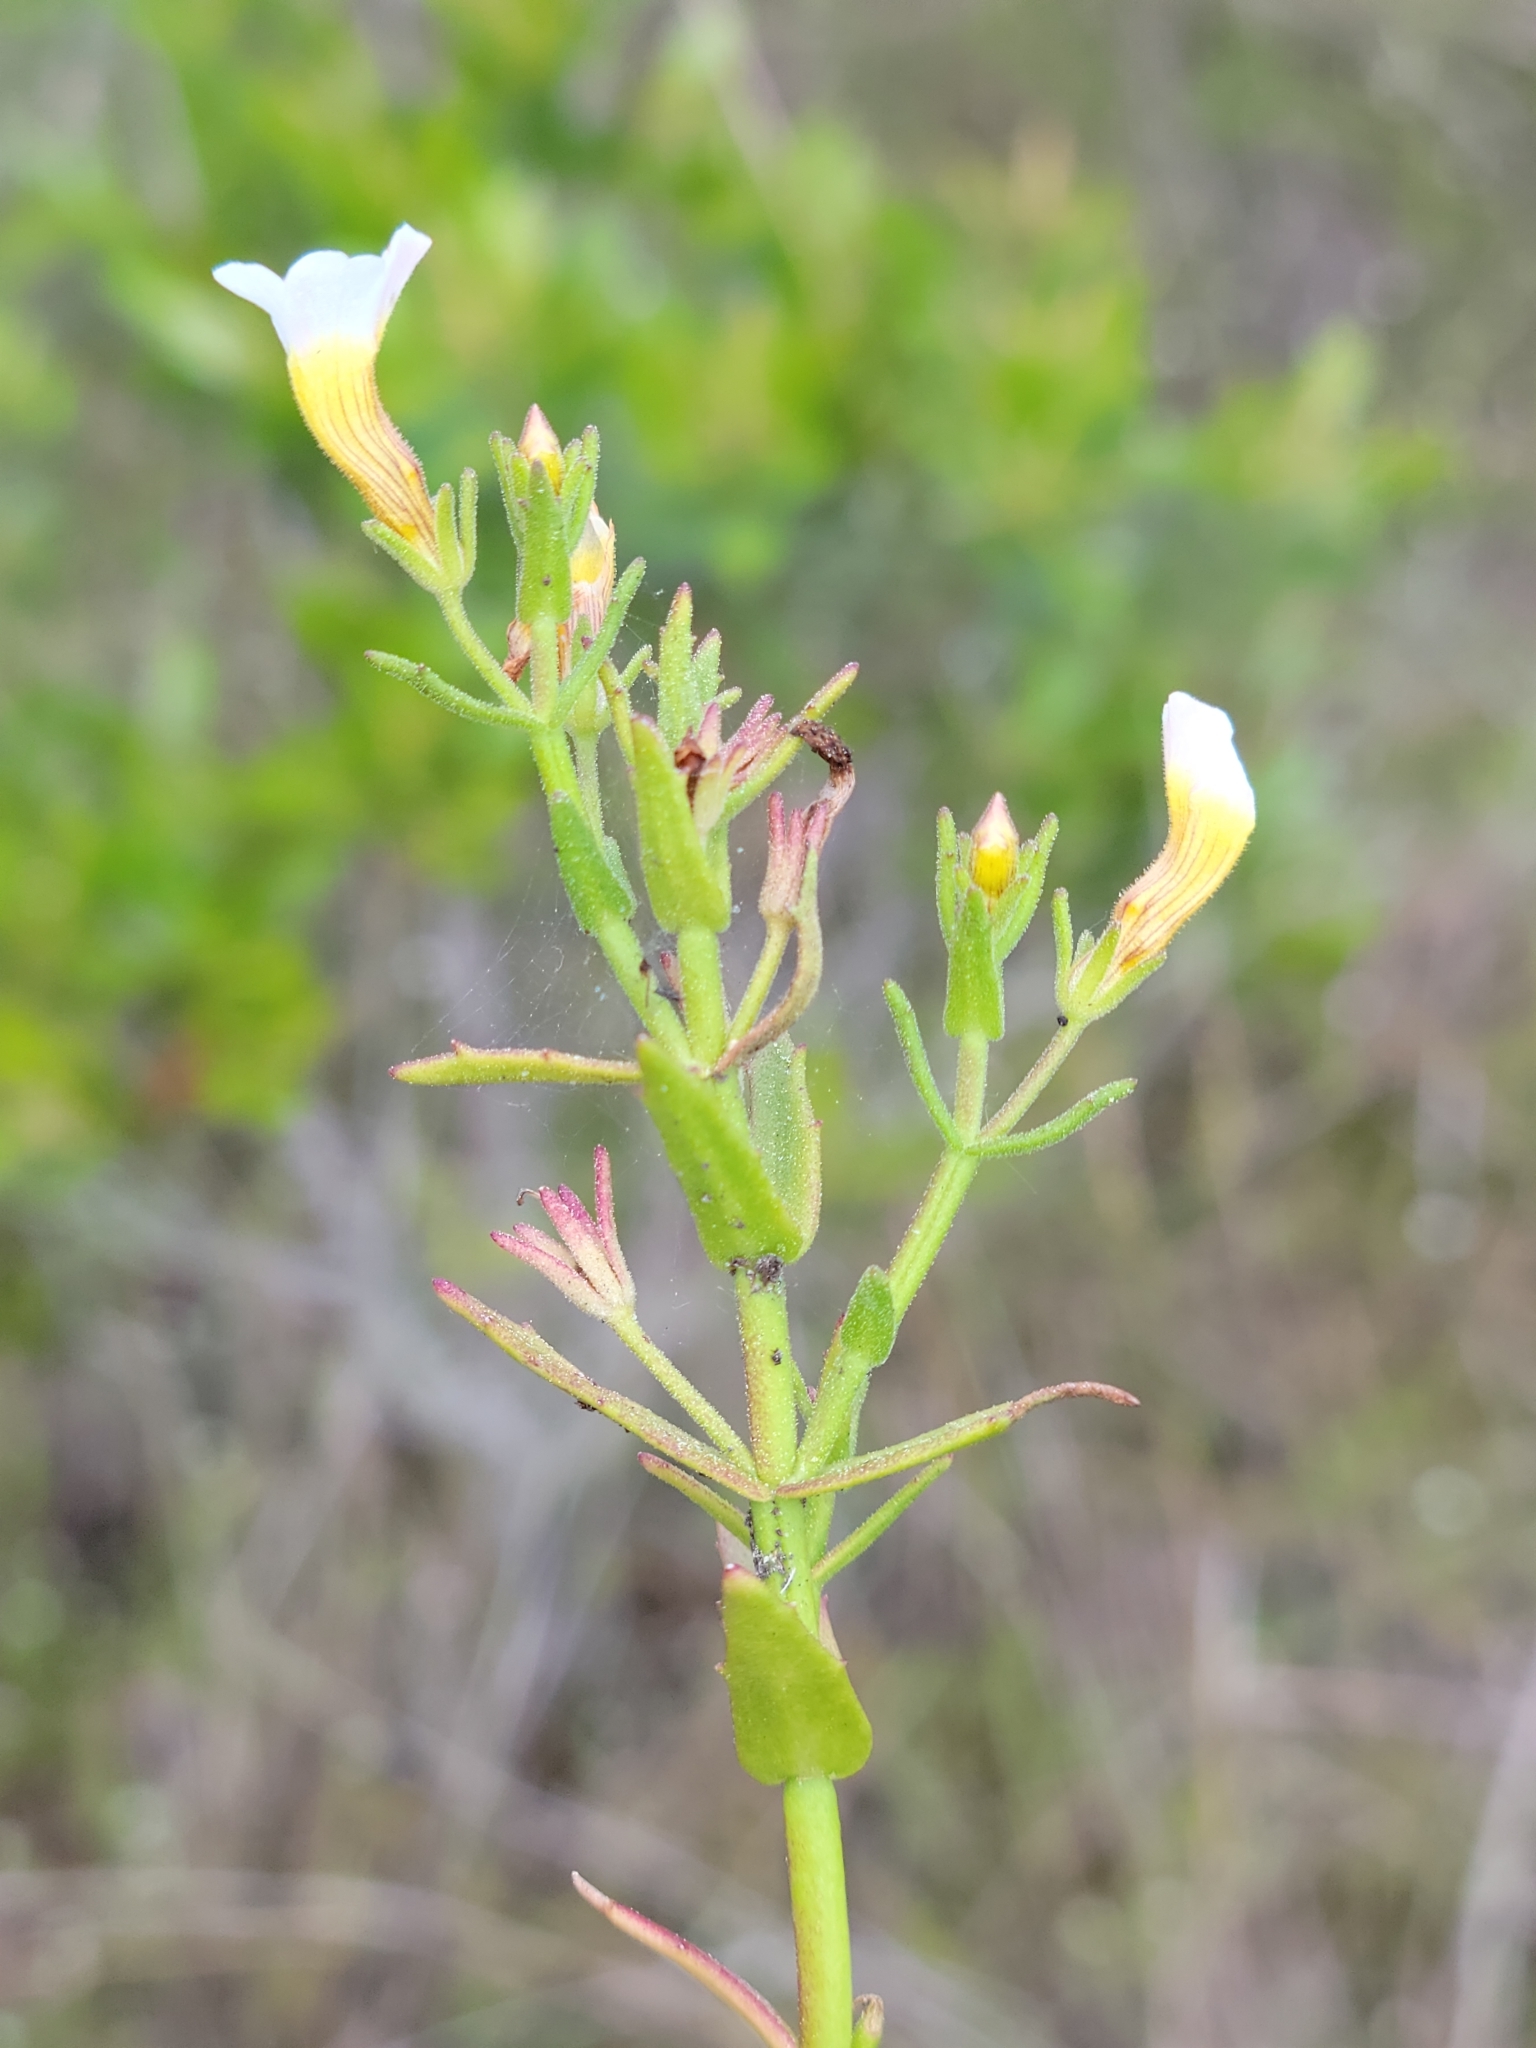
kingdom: Plantae
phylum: Tracheophyta
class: Magnoliopsida
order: Lamiales
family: Plantaginaceae
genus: Gratiola
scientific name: Gratiola ramosa
